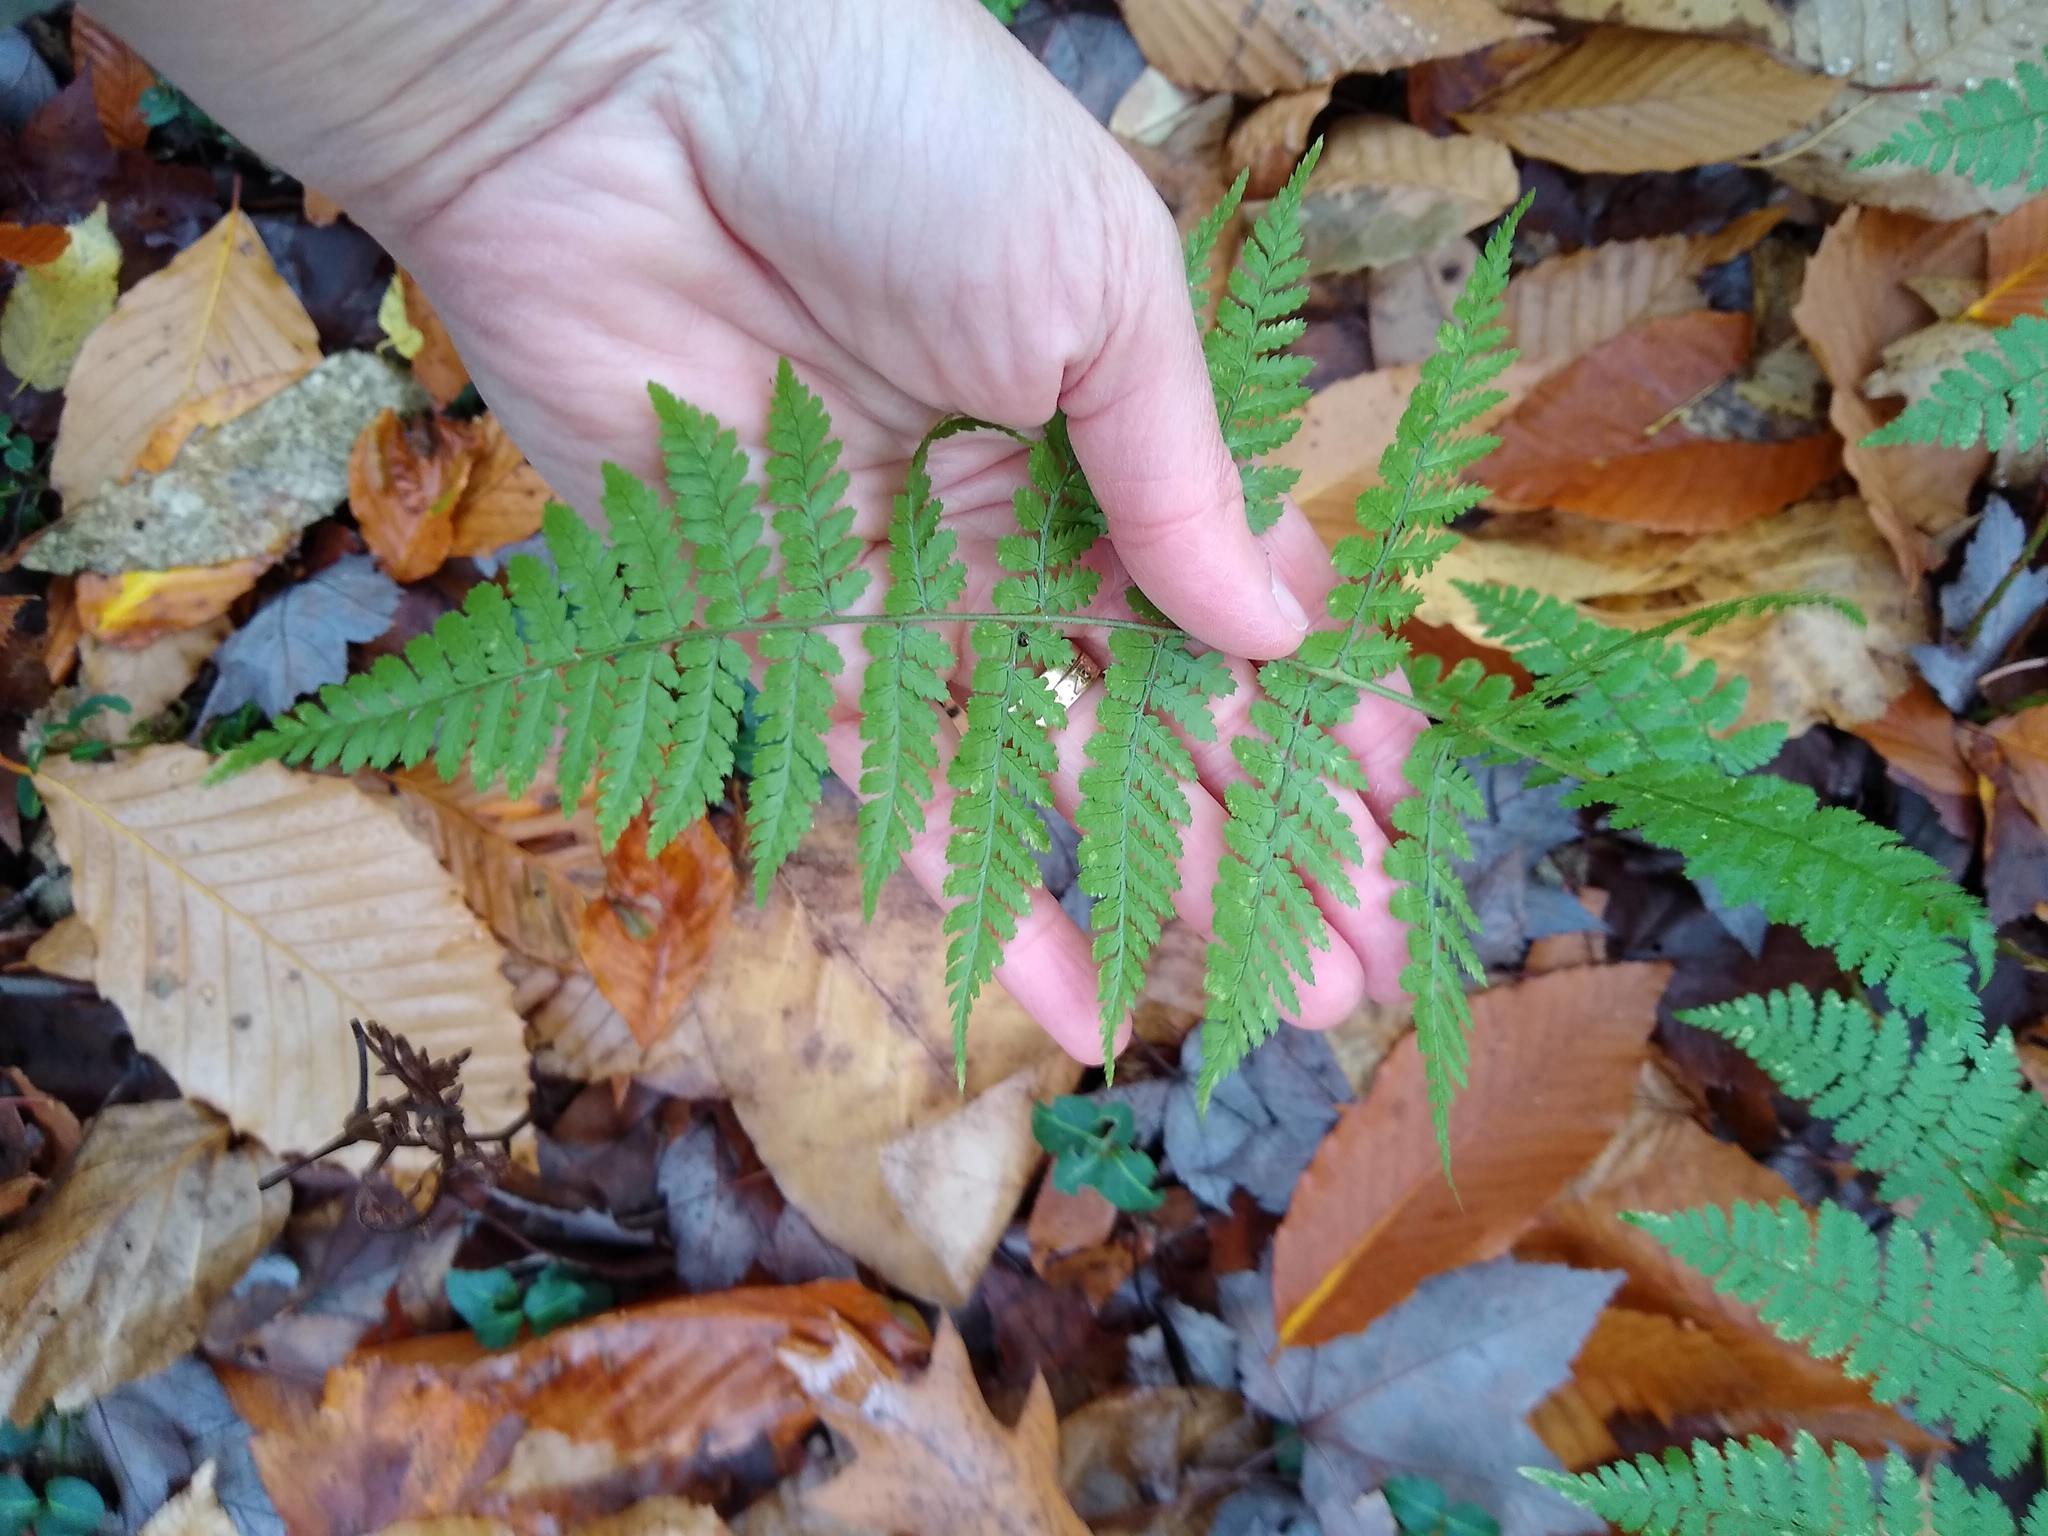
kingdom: Plantae
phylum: Tracheophyta
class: Polypodiopsida
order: Polypodiales
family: Dryopteridaceae
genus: Dryopteris
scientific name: Dryopteris intermedia
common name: Evergreen wood fern
